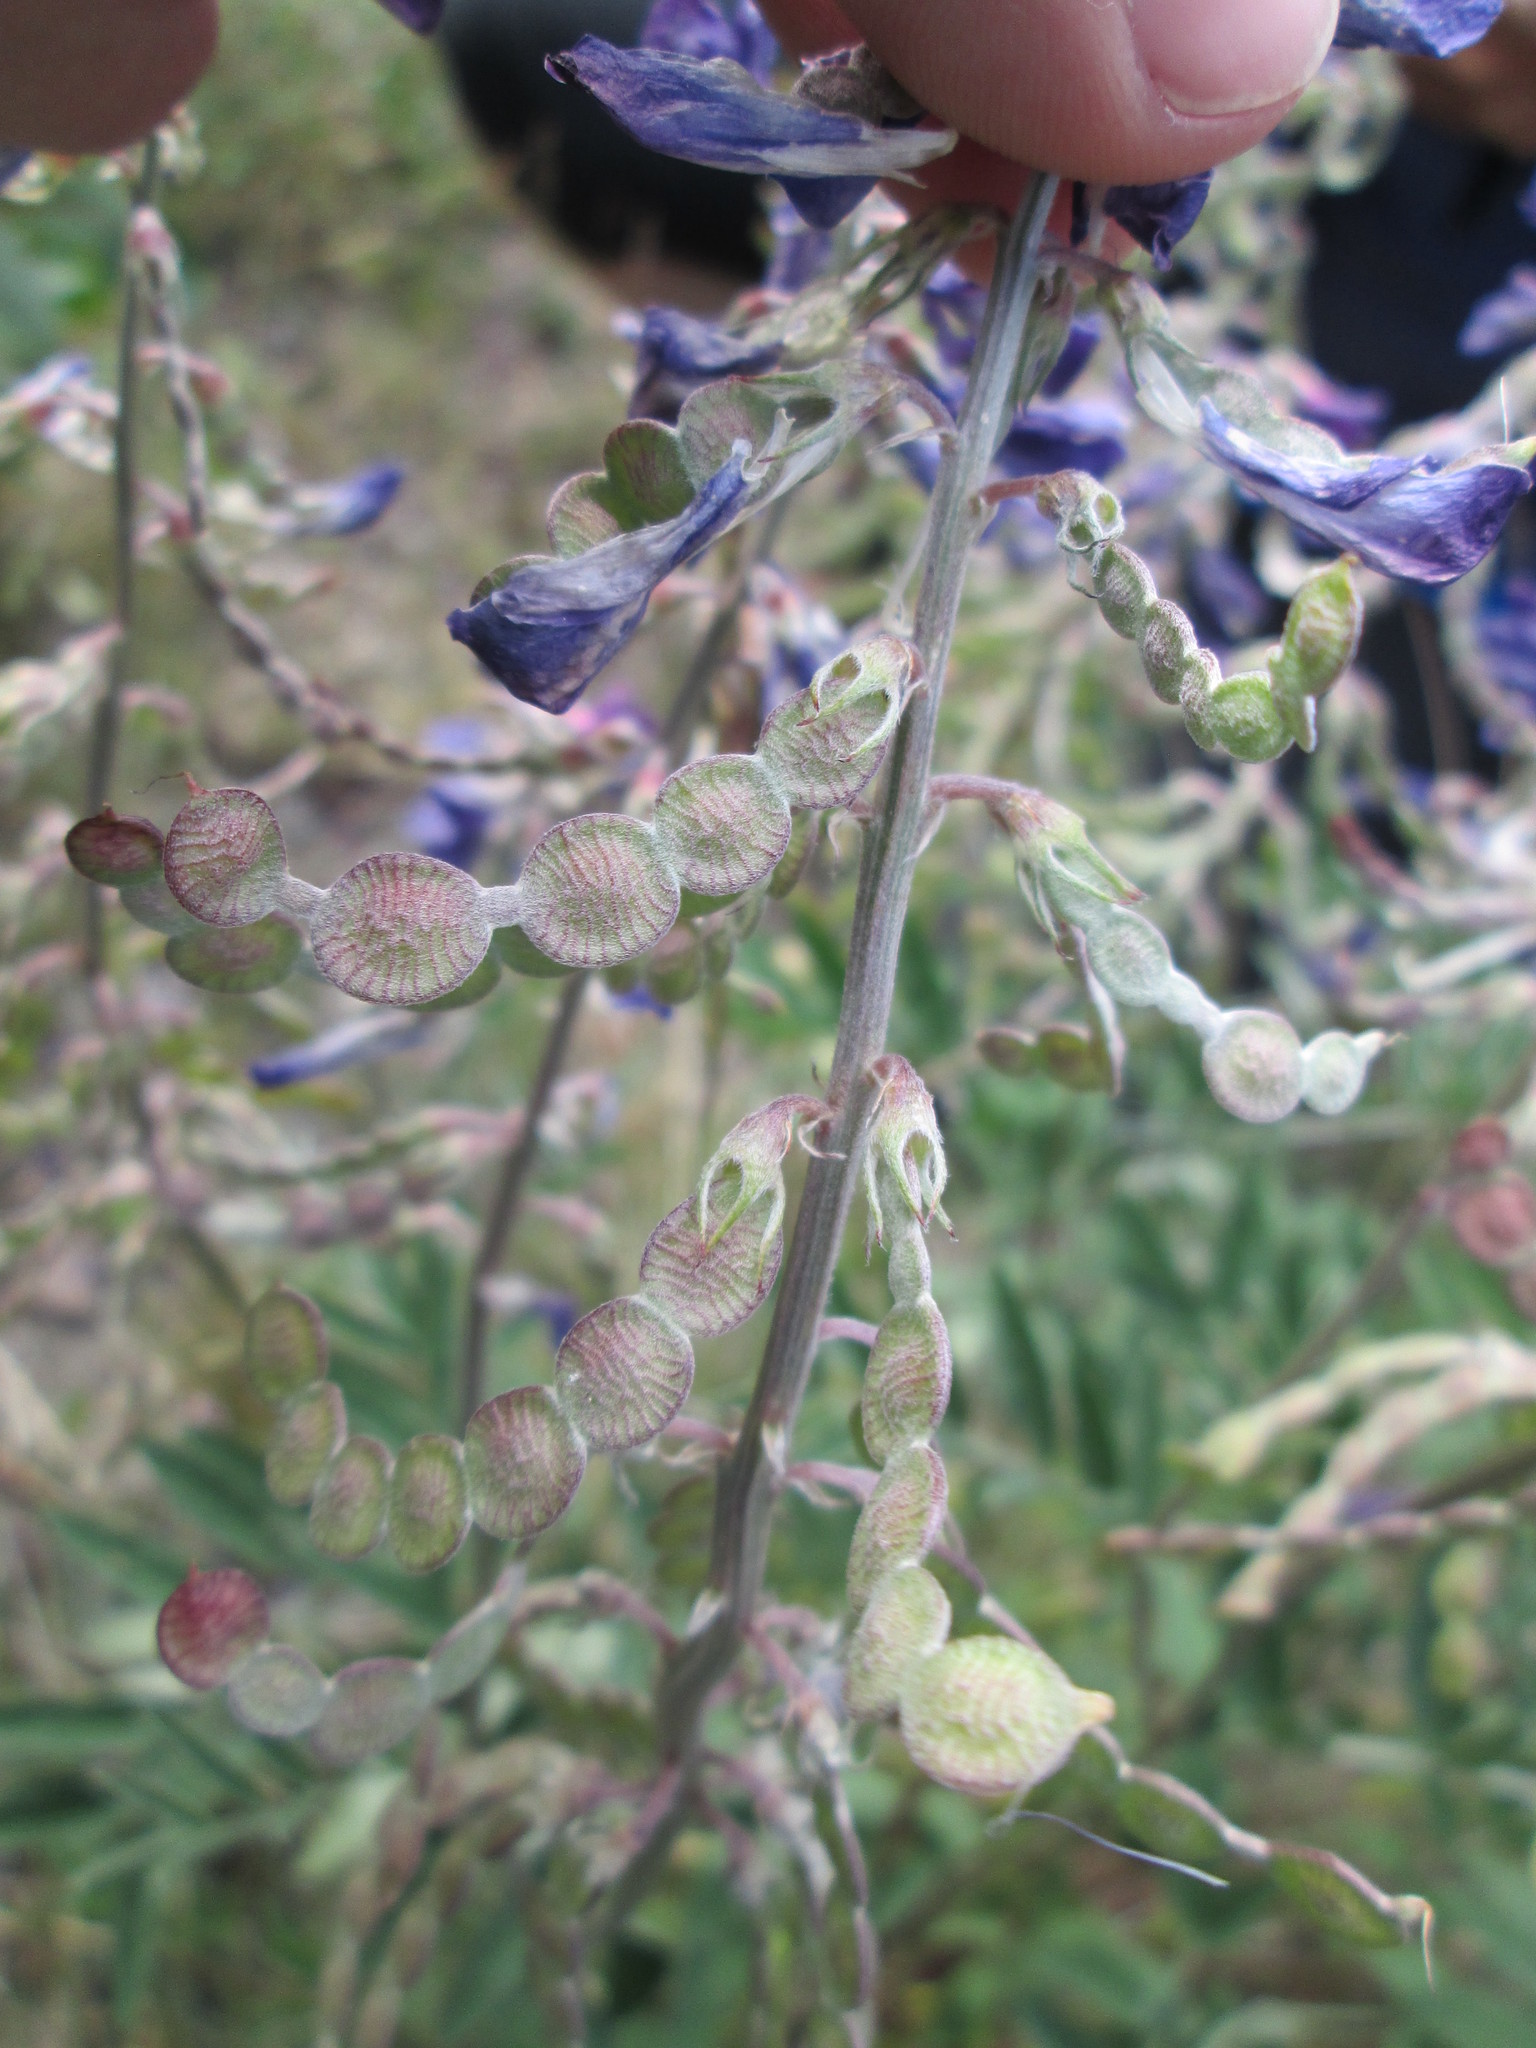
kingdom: Plantae
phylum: Tracheophyta
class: Magnoliopsida
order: Fabales
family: Fabaceae
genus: Hedysarum
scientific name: Hedysarum boreale
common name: Northern sweet-vetch
